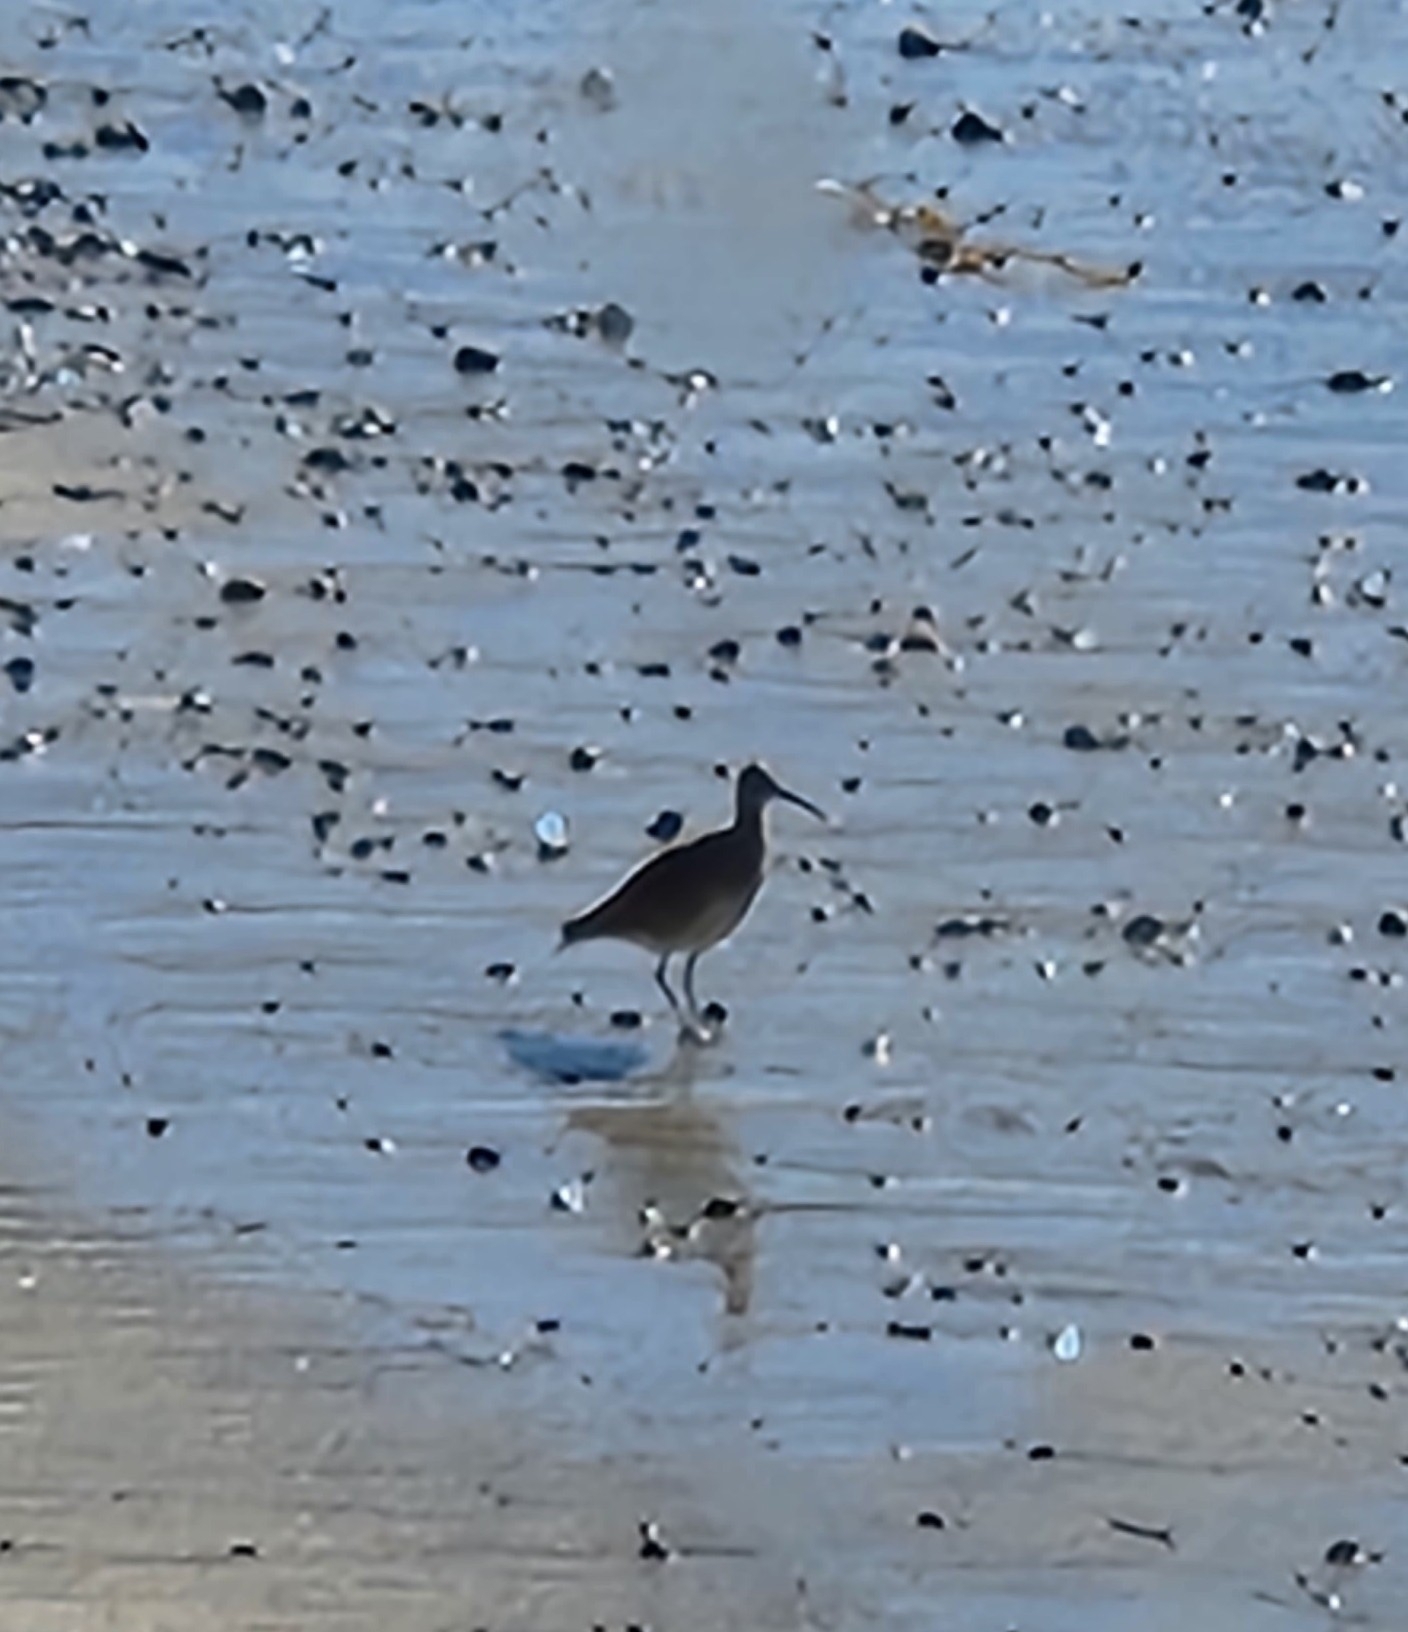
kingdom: Animalia
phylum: Chordata
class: Aves
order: Charadriiformes
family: Scolopacidae
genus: Numenius
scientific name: Numenius phaeopus
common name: Whimbrel
